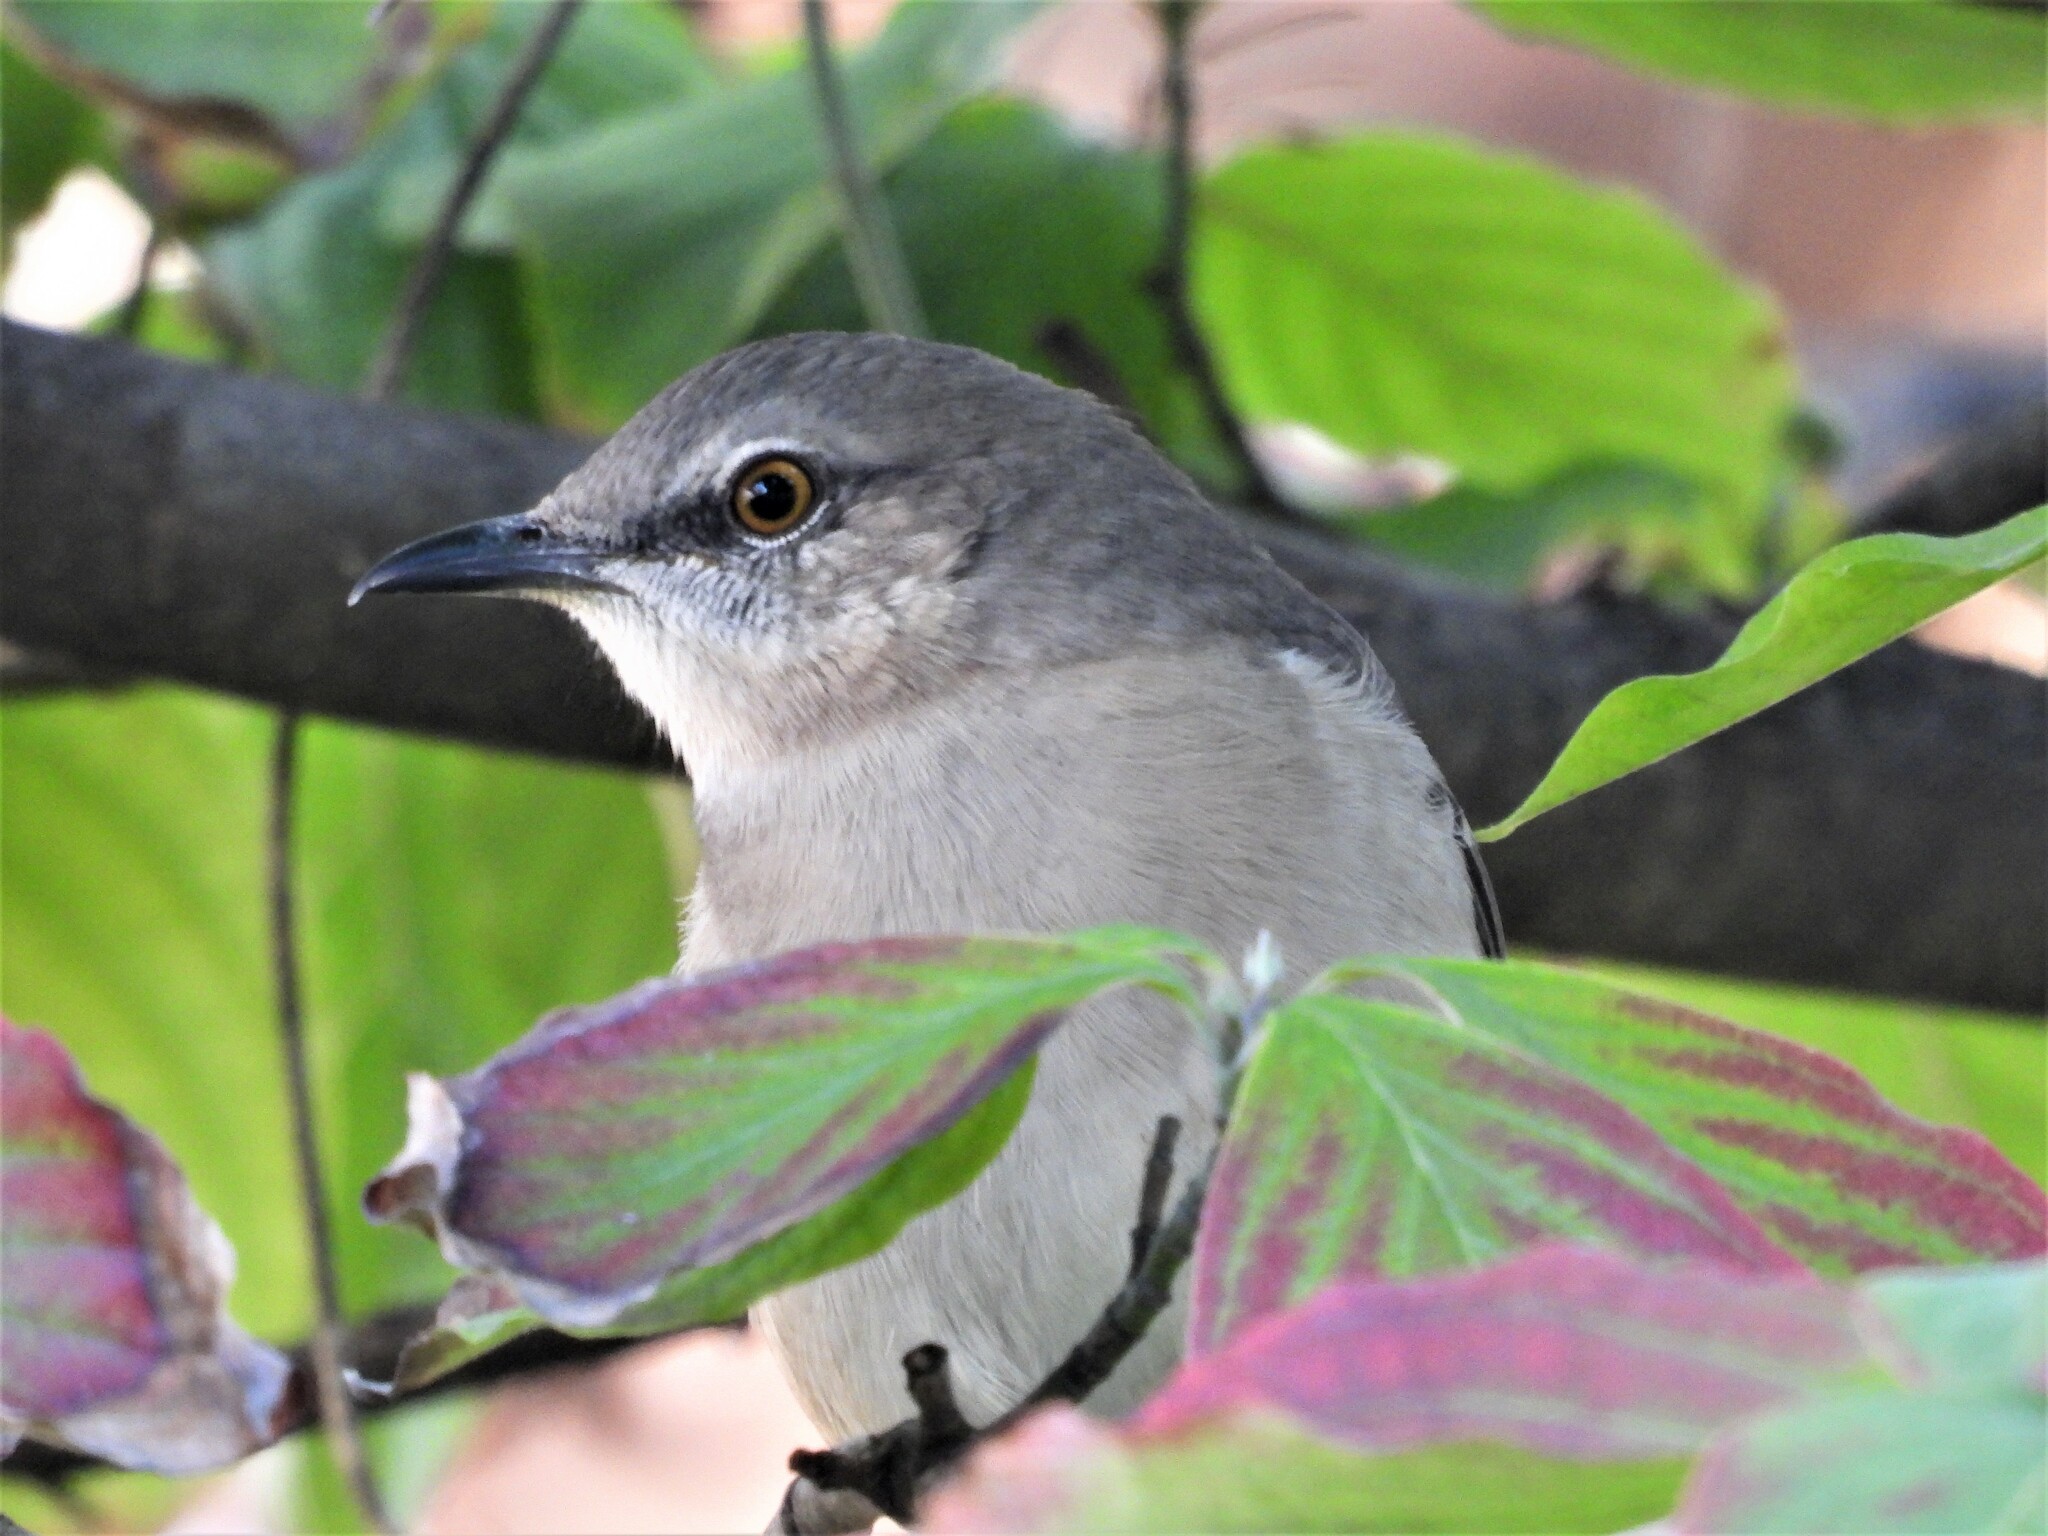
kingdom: Animalia
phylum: Chordata
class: Aves
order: Passeriformes
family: Mimidae
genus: Mimus
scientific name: Mimus polyglottos
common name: Northern mockingbird
